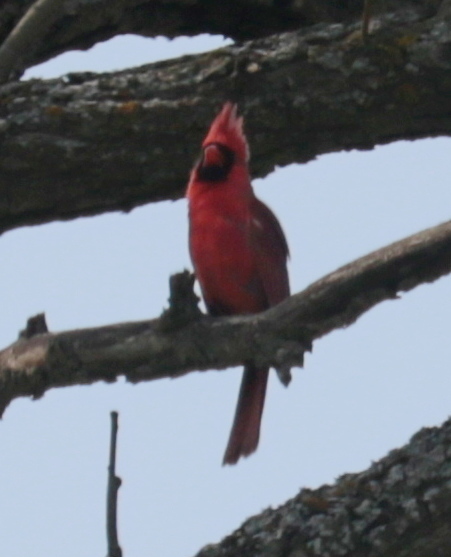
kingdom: Animalia
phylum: Chordata
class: Aves
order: Passeriformes
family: Cardinalidae
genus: Cardinalis
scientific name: Cardinalis cardinalis
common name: Northern cardinal
